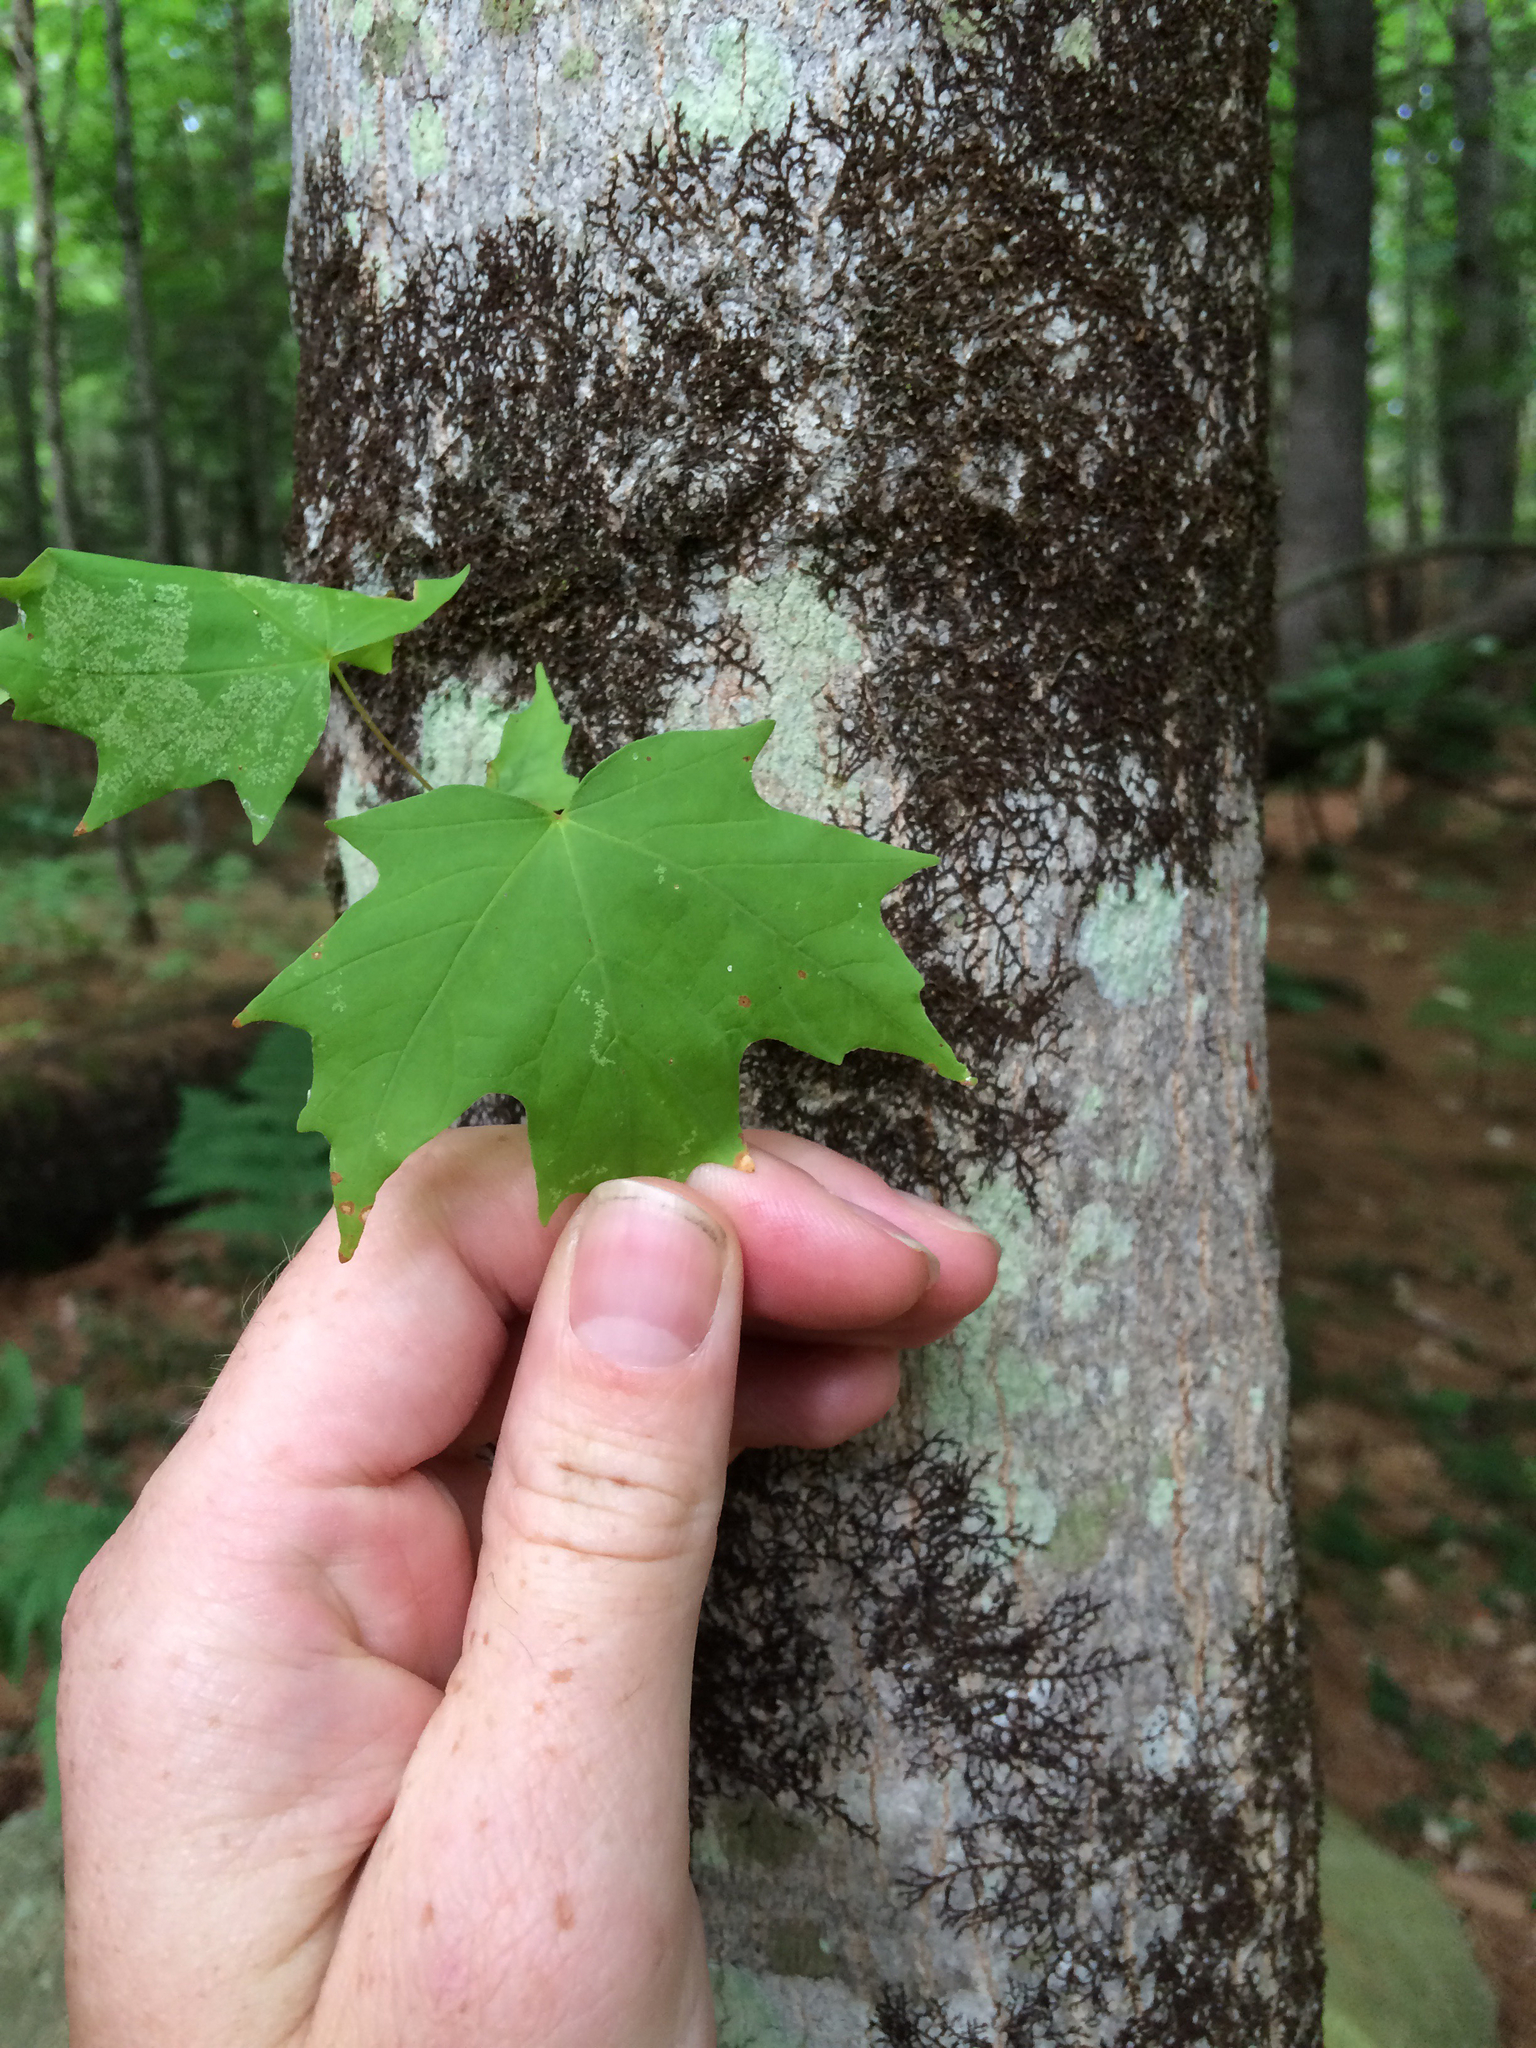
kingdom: Plantae
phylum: Tracheophyta
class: Magnoliopsida
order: Sapindales
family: Sapindaceae
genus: Acer
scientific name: Acer saccharum
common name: Sugar maple
